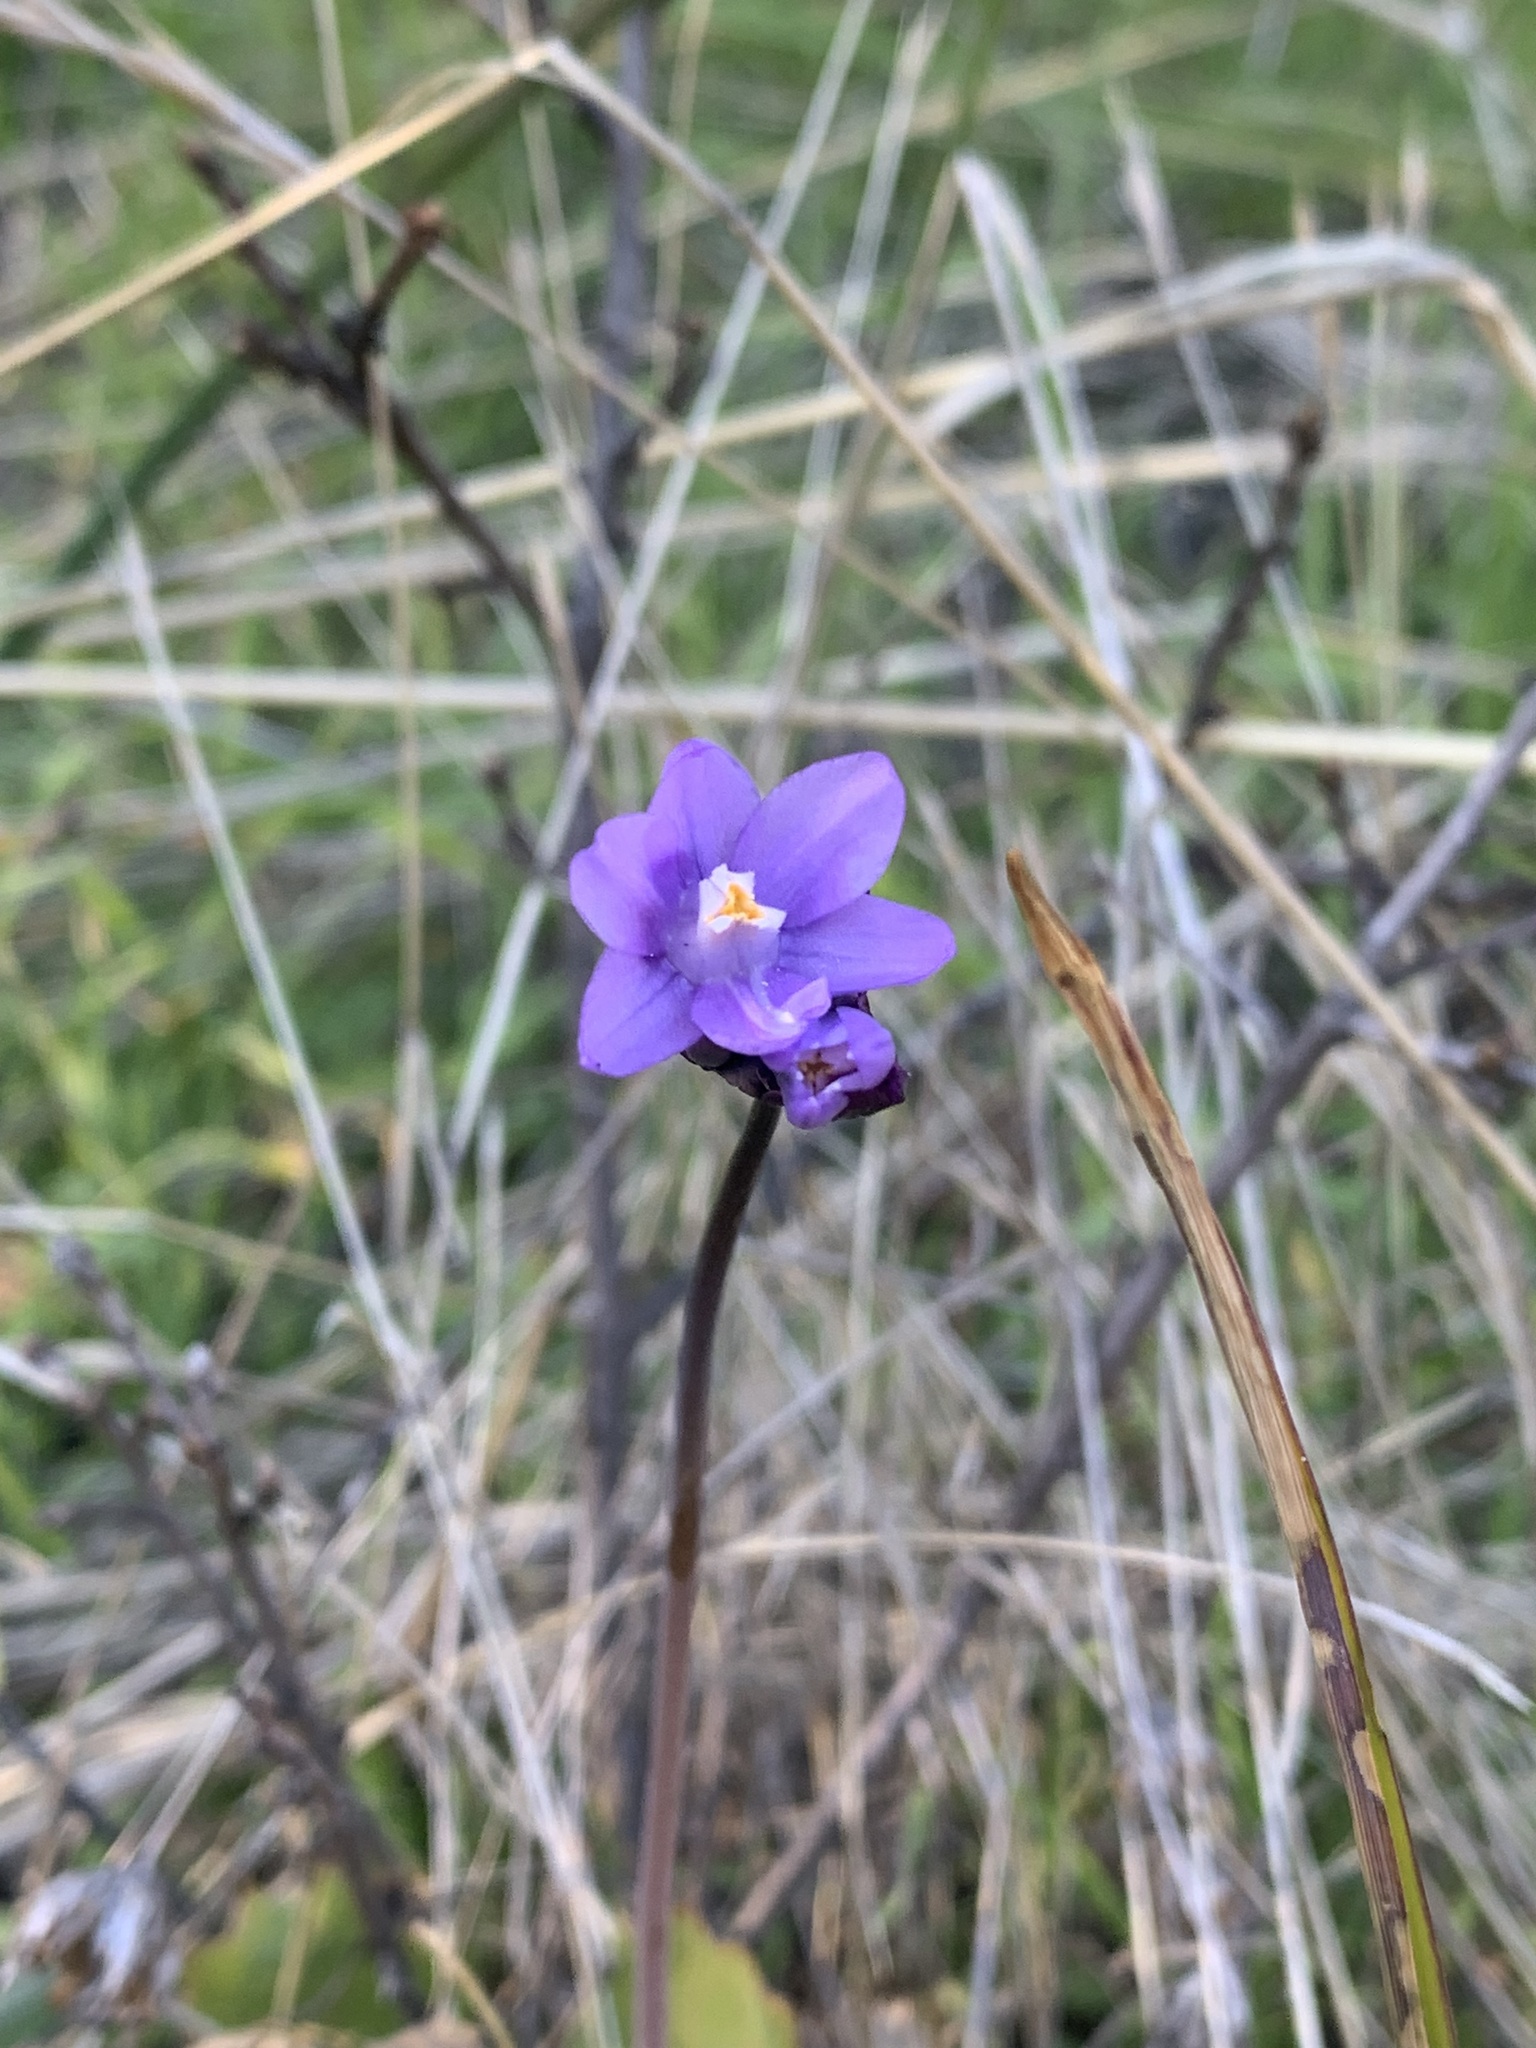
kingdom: Plantae
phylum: Tracheophyta
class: Liliopsida
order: Asparagales
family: Asparagaceae
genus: Dipterostemon
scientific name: Dipterostemon capitatus
